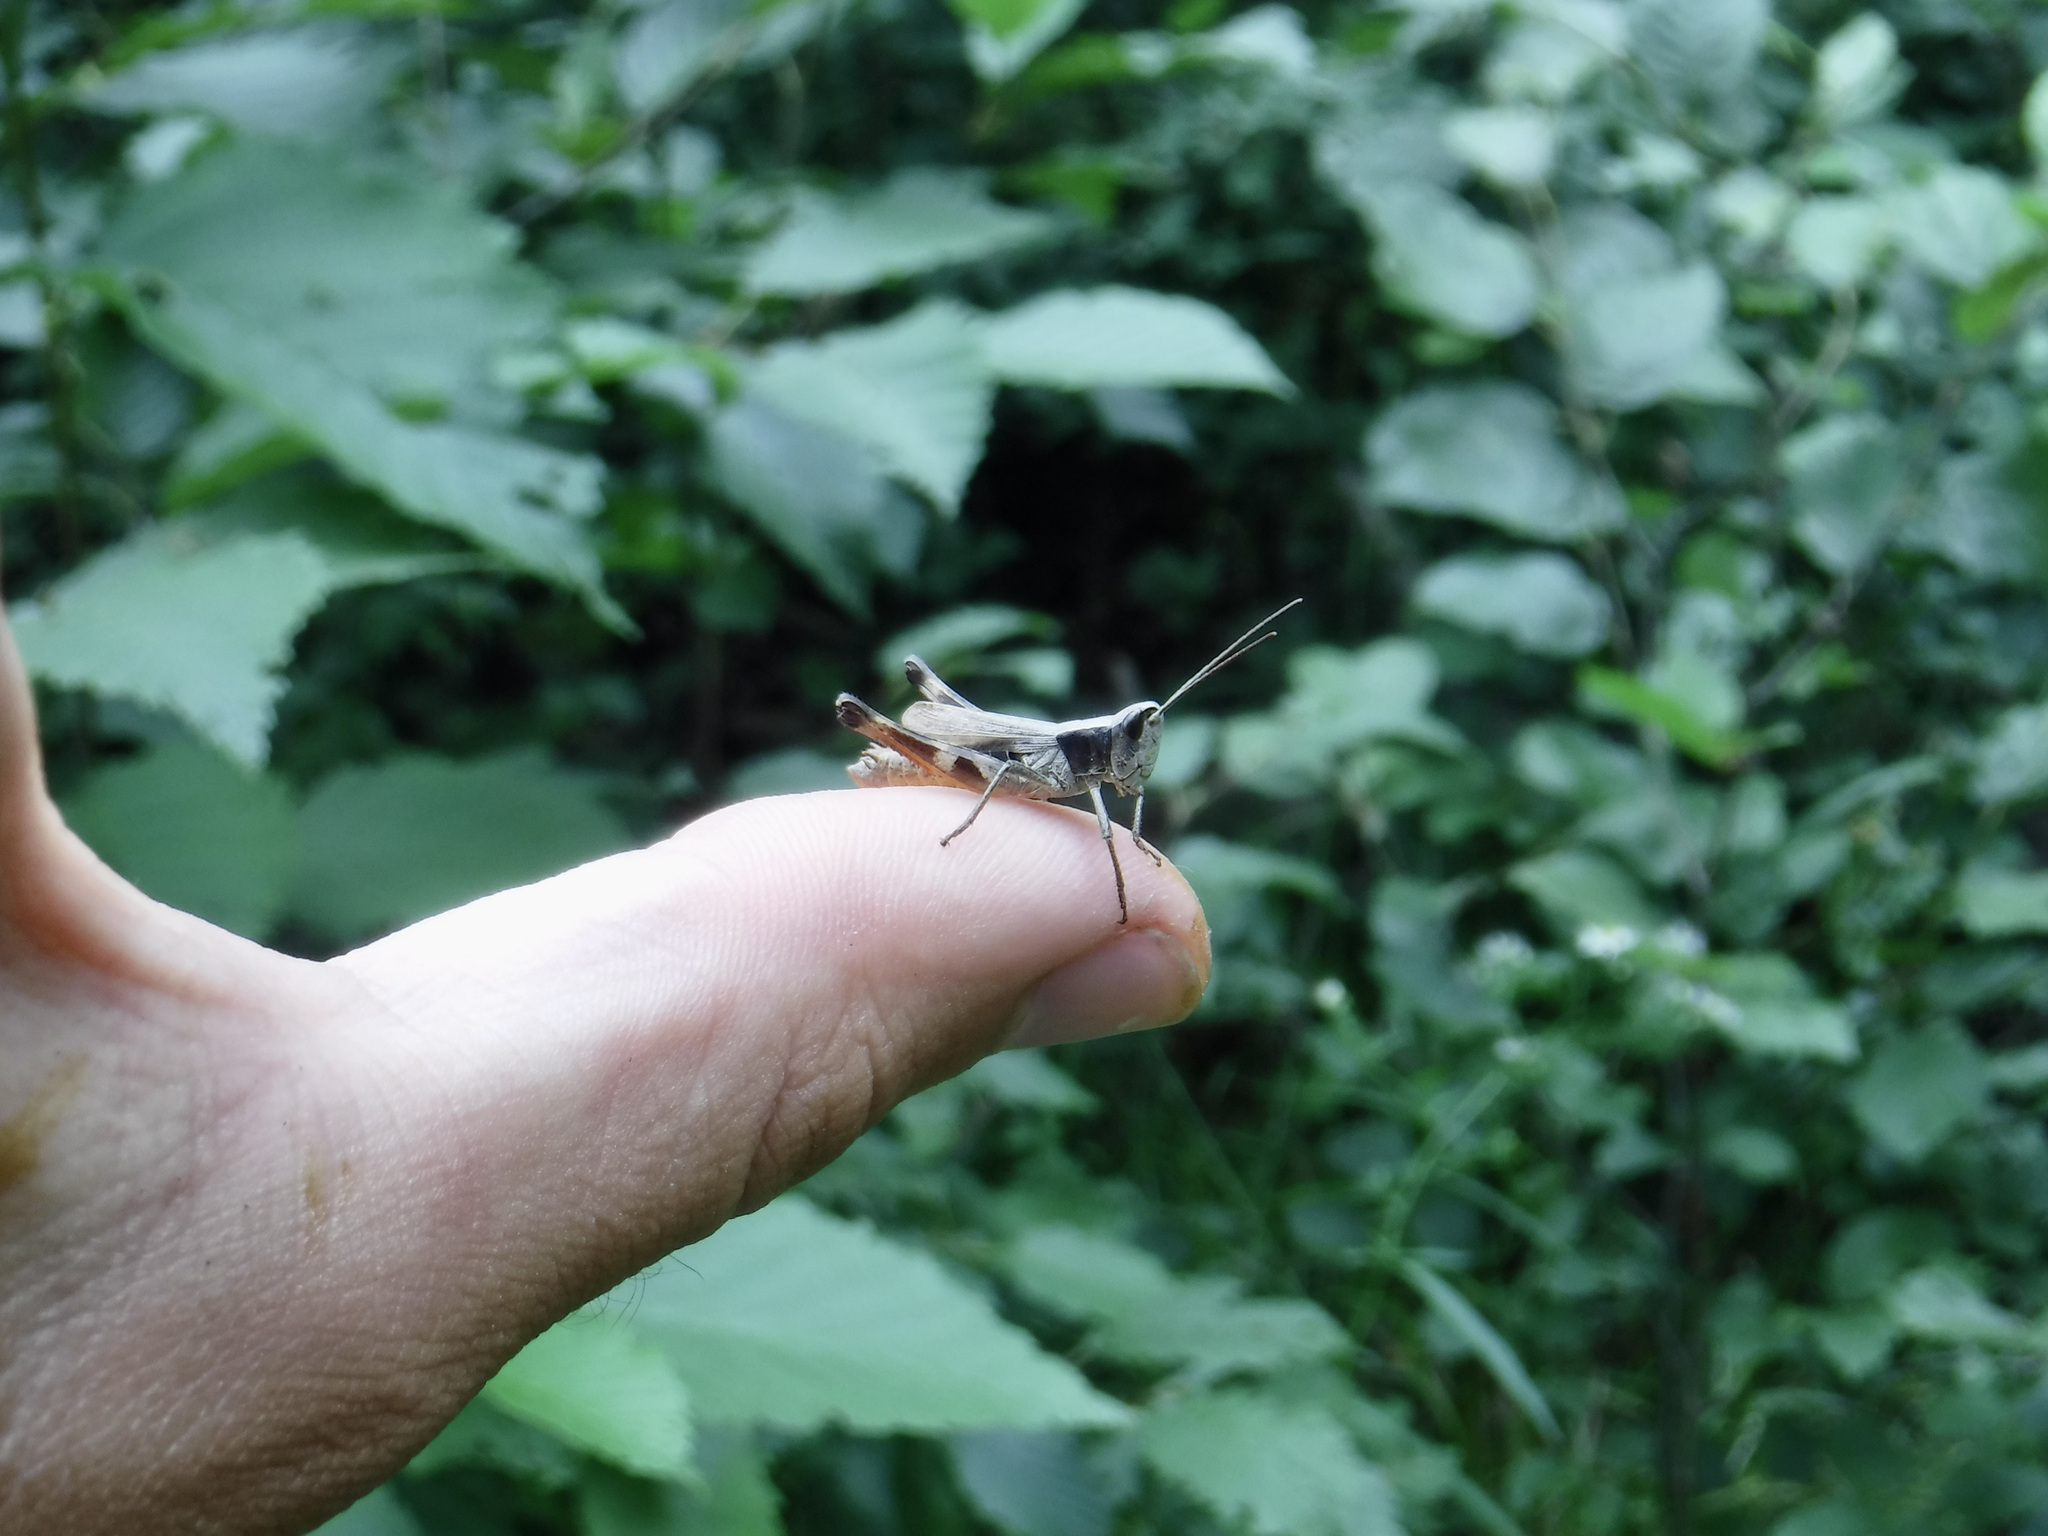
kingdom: Animalia
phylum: Arthropoda
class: Insecta
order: Orthoptera
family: Acrididae
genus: Chloealtis
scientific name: Chloealtis conspersa
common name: Sprinkled broad-winged grasshopper
